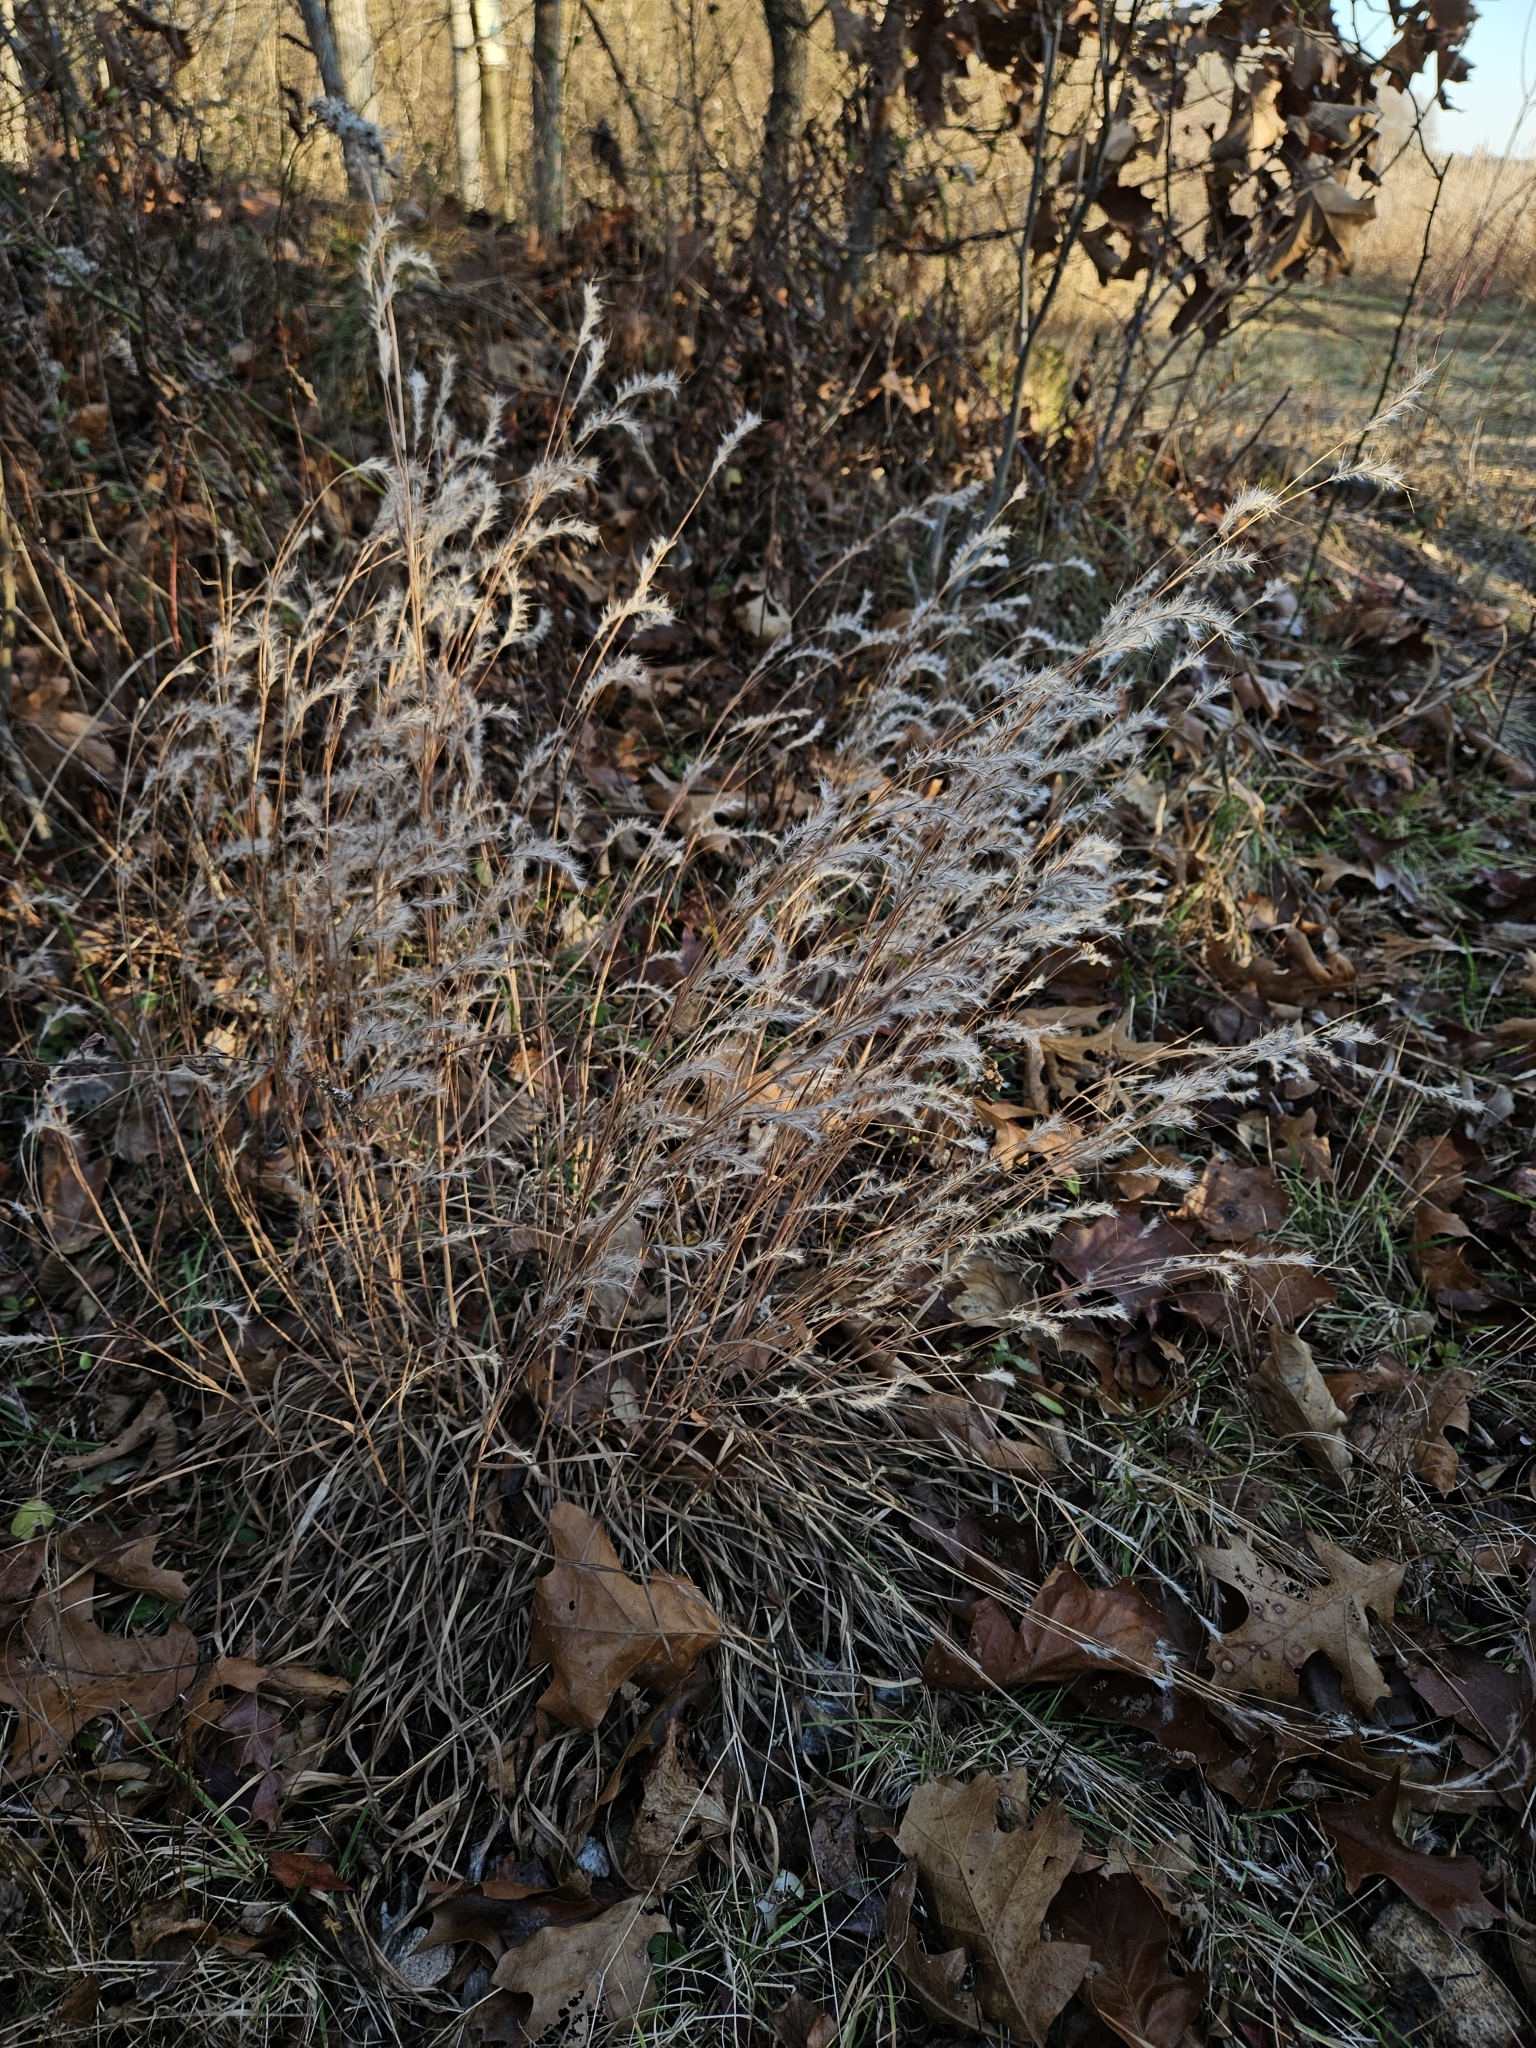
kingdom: Plantae
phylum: Tracheophyta
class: Liliopsida
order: Poales
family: Poaceae
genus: Schizachyrium
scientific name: Schizachyrium scoparium
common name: Little bluestem
